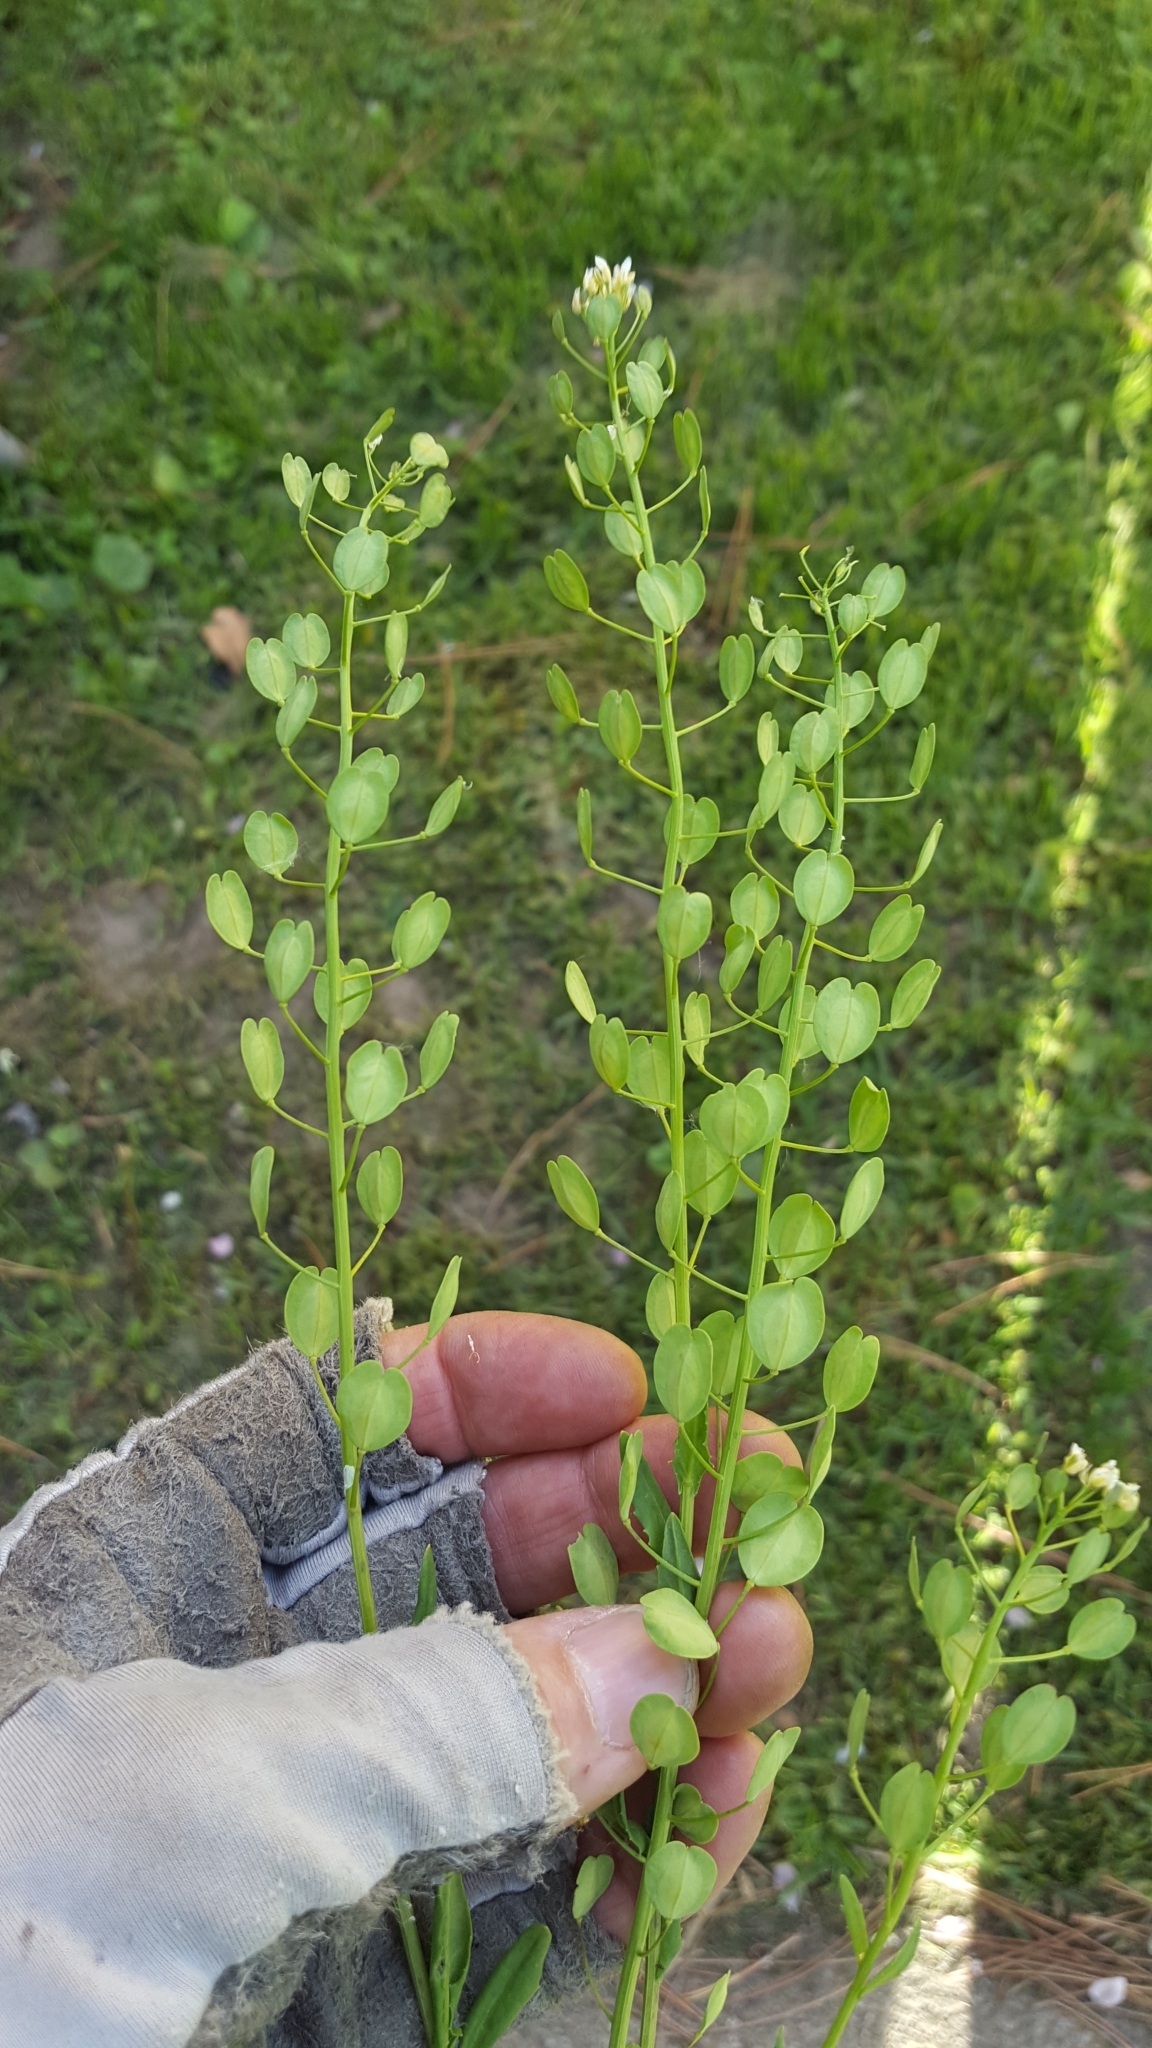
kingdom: Plantae
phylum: Tracheophyta
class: Magnoliopsida
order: Brassicales
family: Brassicaceae
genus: Thlaspi
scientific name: Thlaspi arvense
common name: Field pennycress
